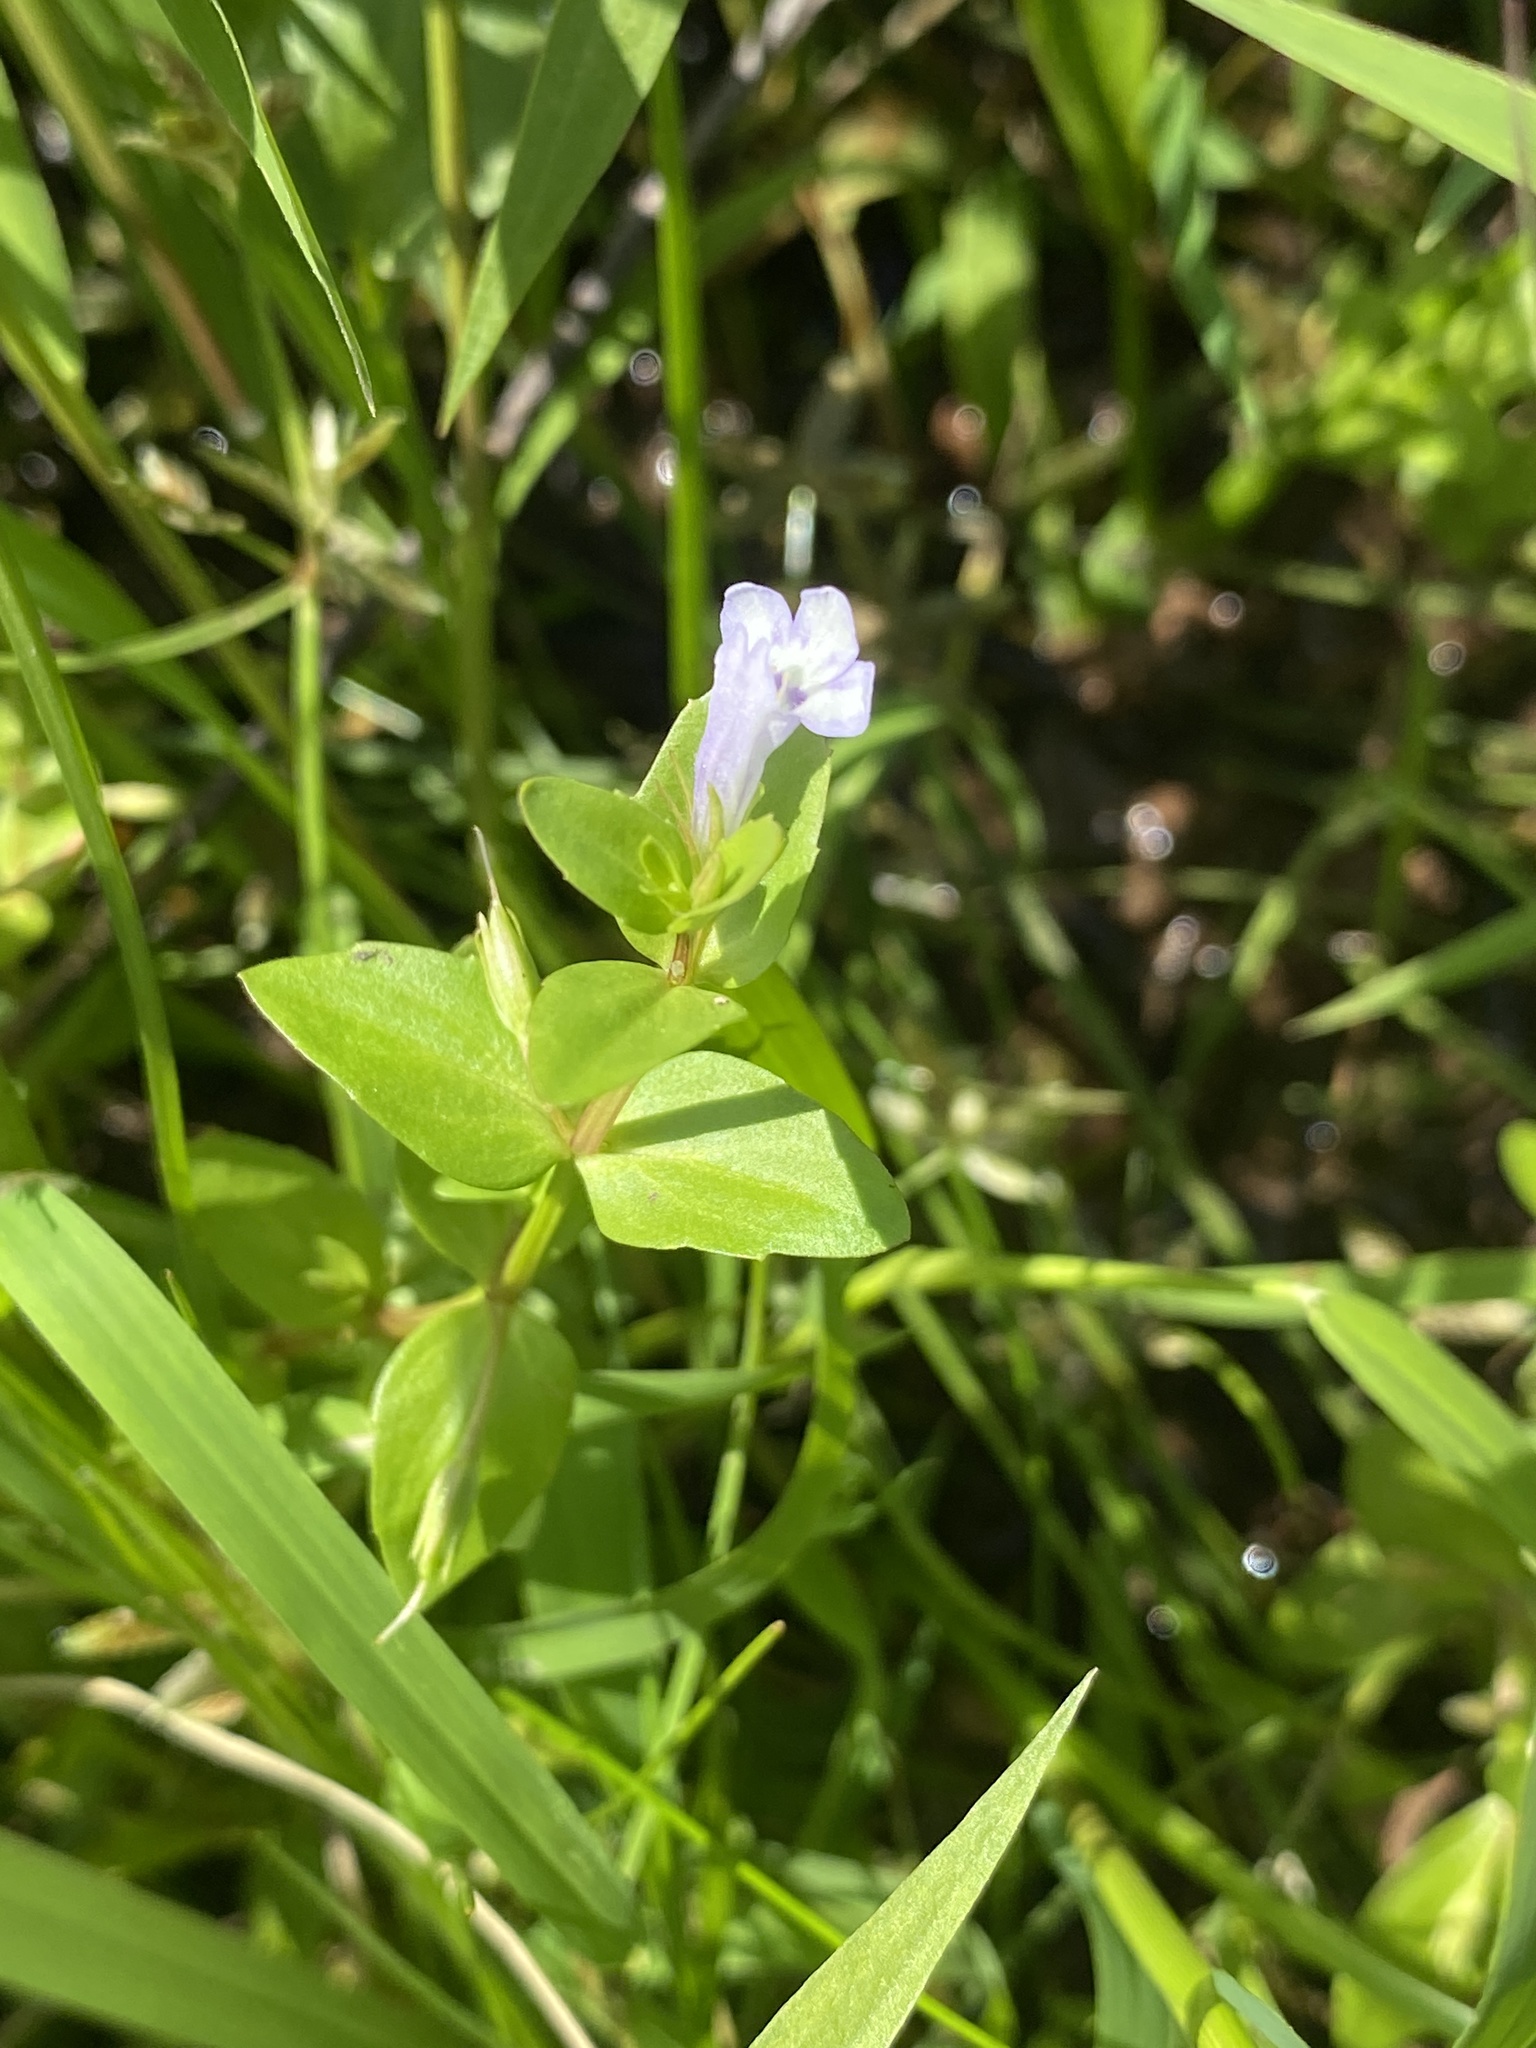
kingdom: Plantae
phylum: Tracheophyta
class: Magnoliopsida
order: Lamiales
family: Linderniaceae
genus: Lindernia
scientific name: Lindernia dubia
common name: Annual false pimpernel
